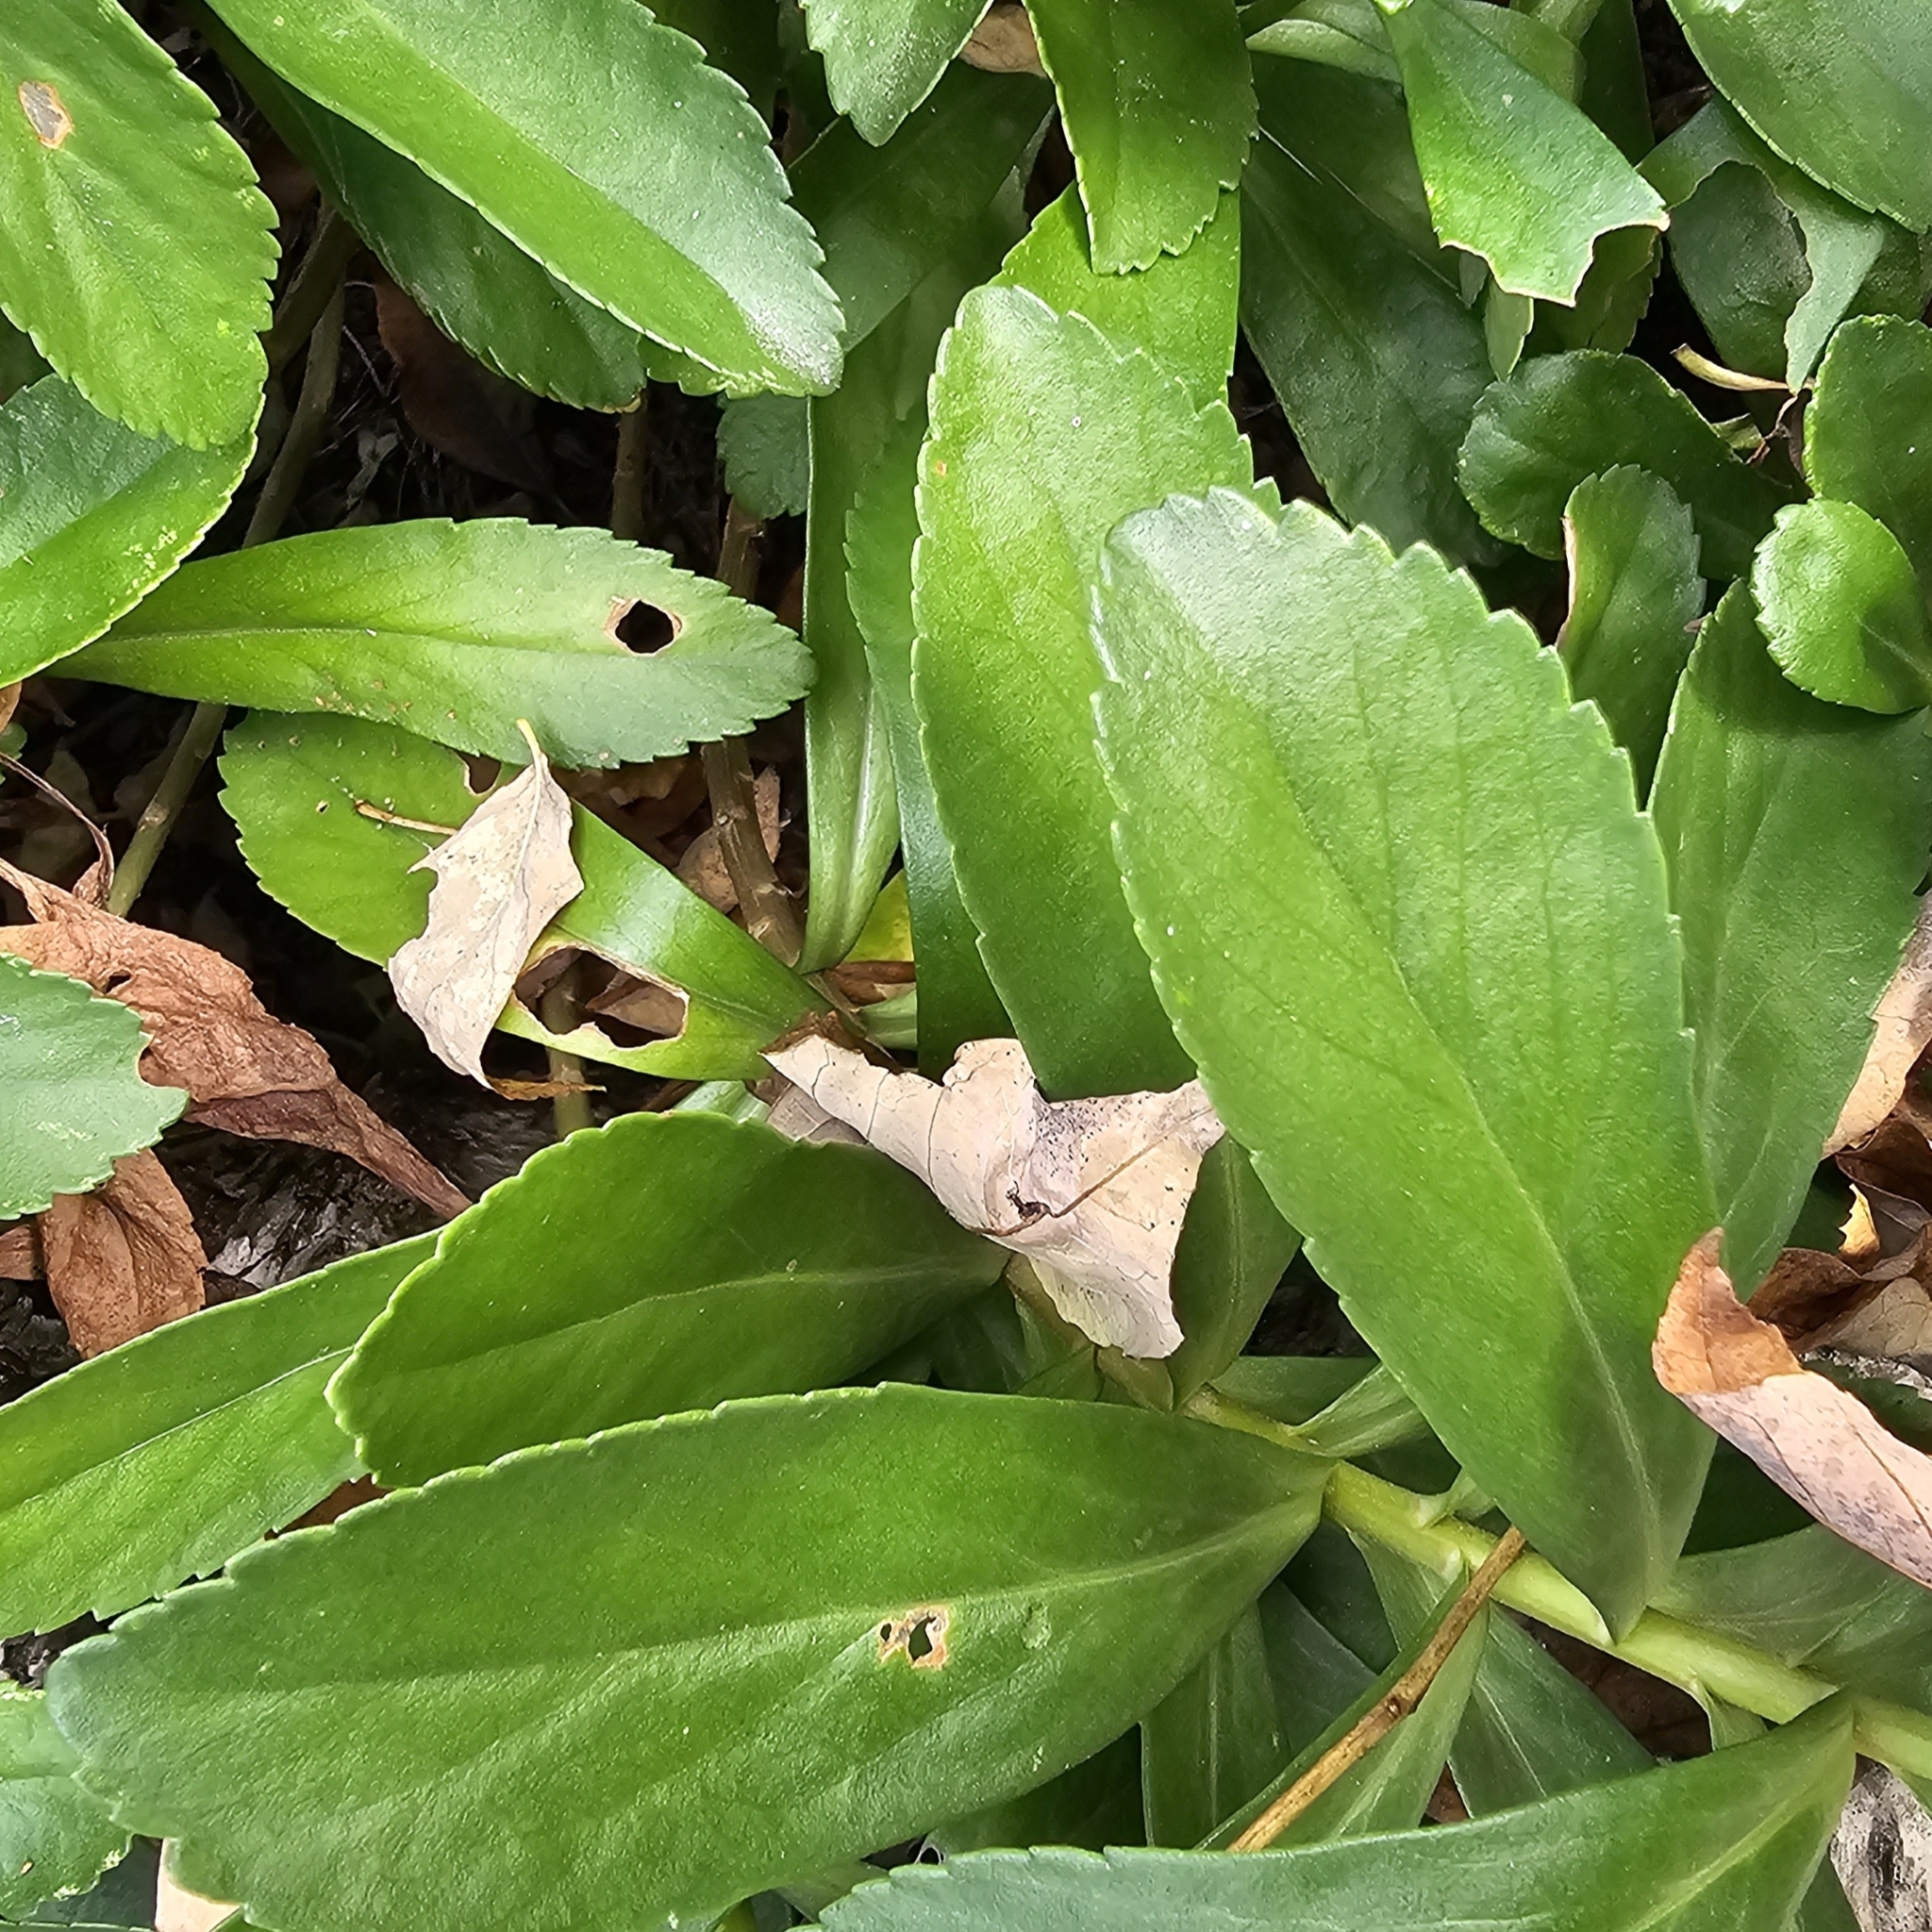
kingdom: Plantae
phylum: Tracheophyta
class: Magnoliopsida
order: Asterales
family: Asteraceae
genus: Nipponanthemum
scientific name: Nipponanthemum nipponicum
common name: Nippon daisy
